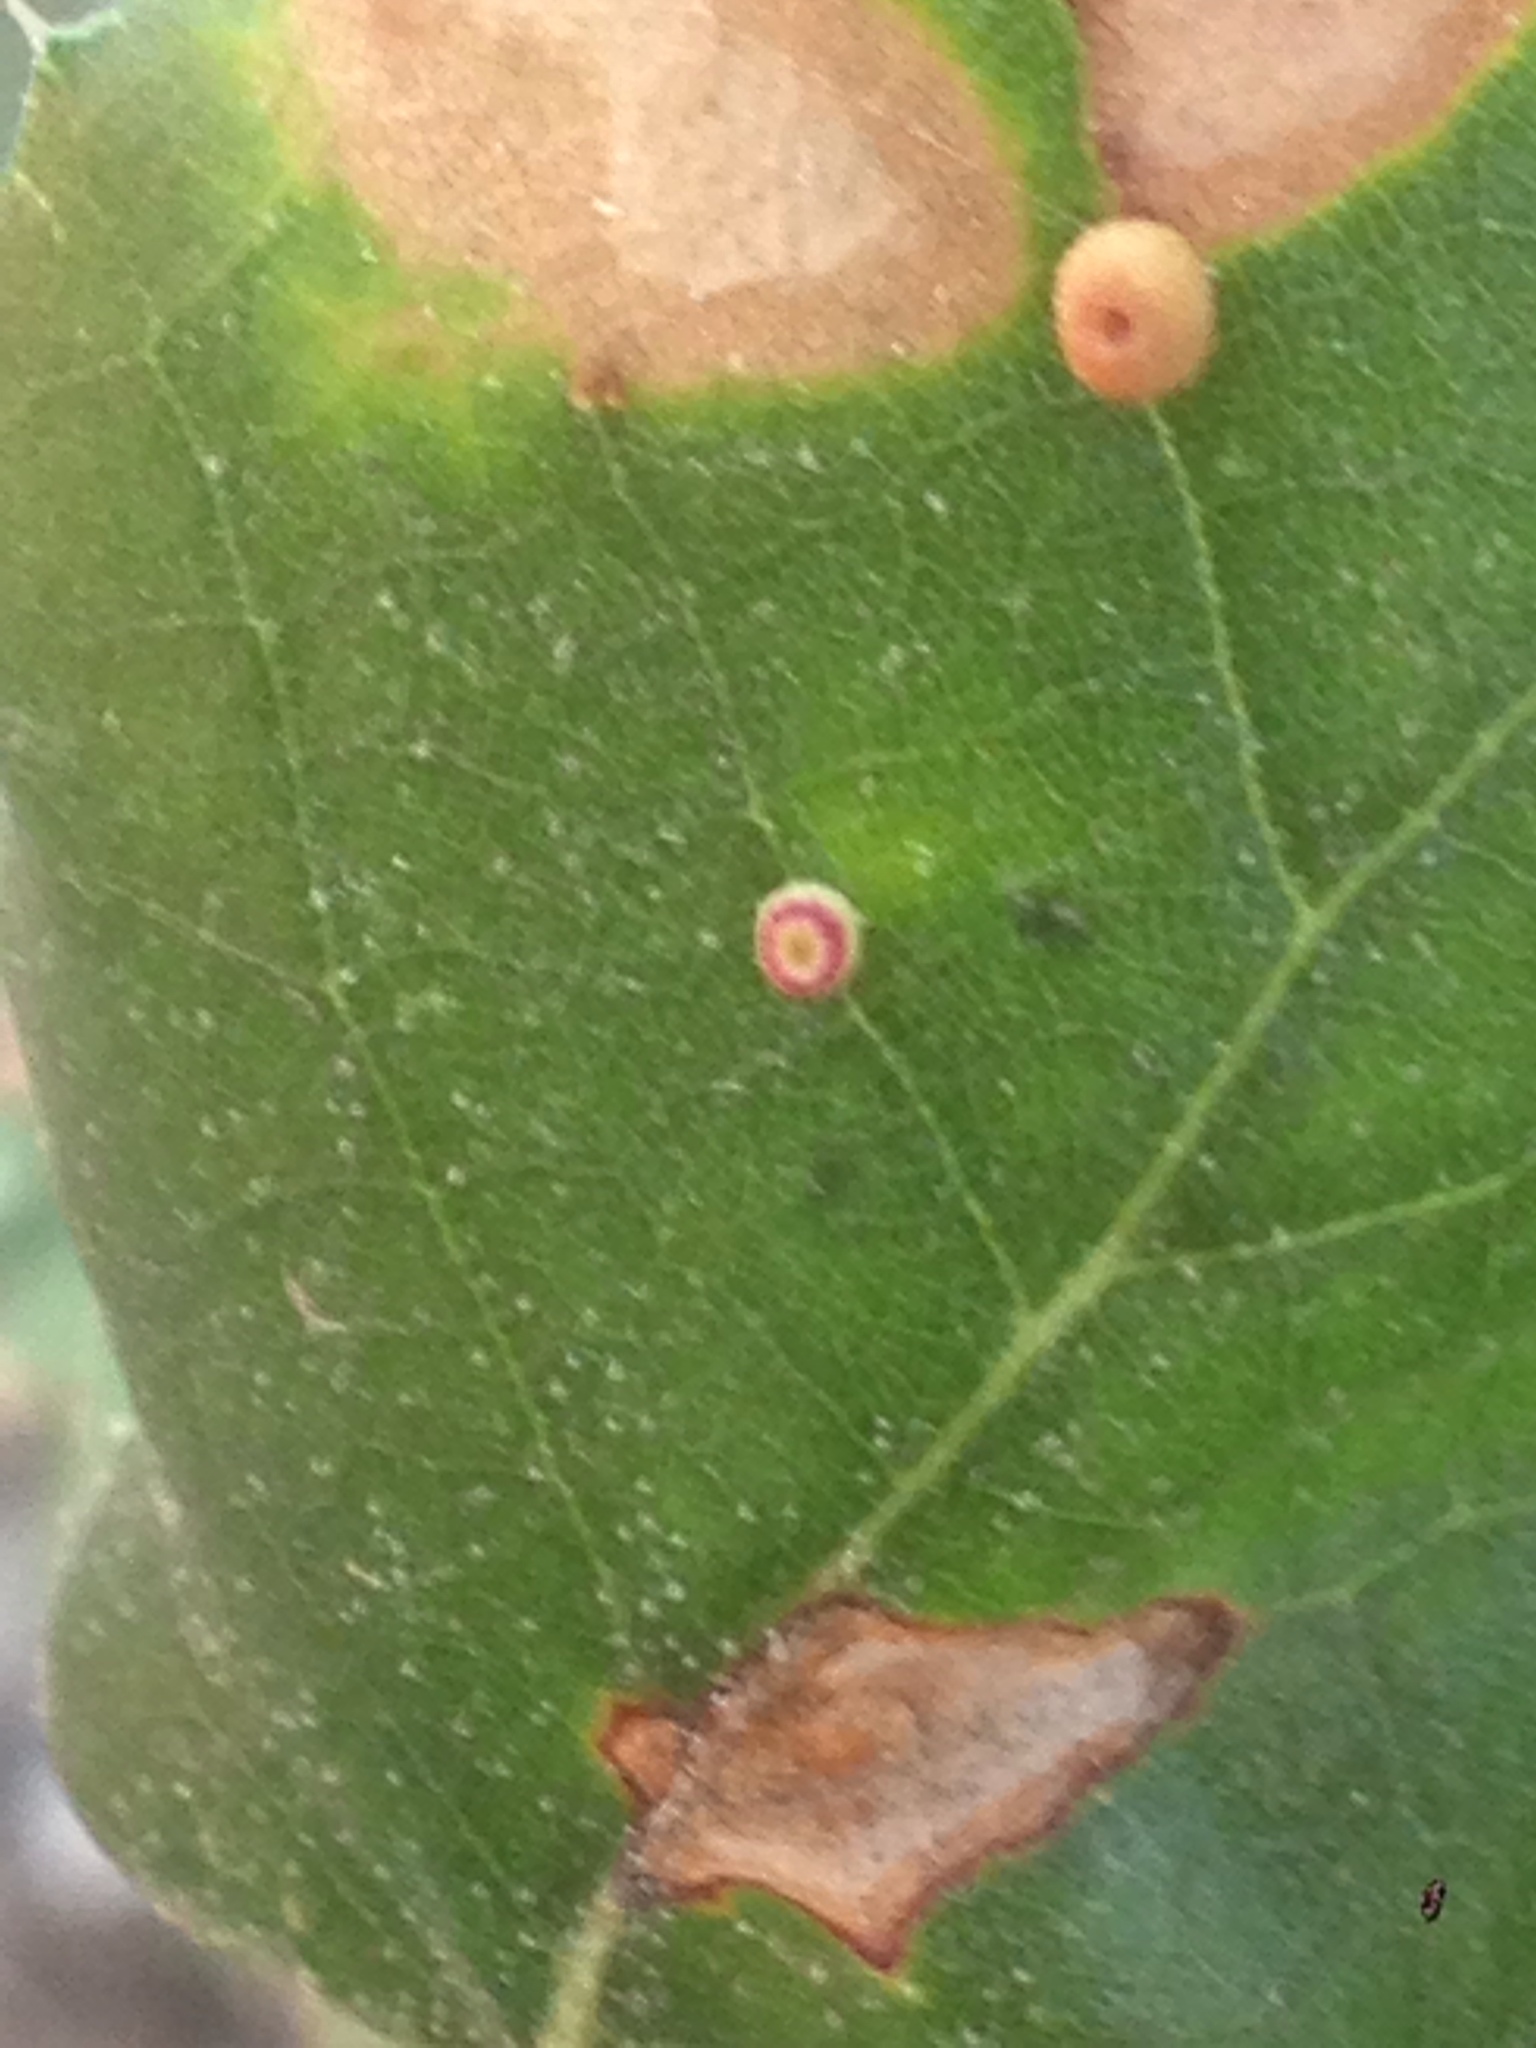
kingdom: Animalia
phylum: Arthropoda
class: Insecta
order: Hymenoptera
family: Cynipidae
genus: Dryocosmus
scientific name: Dryocosmus
